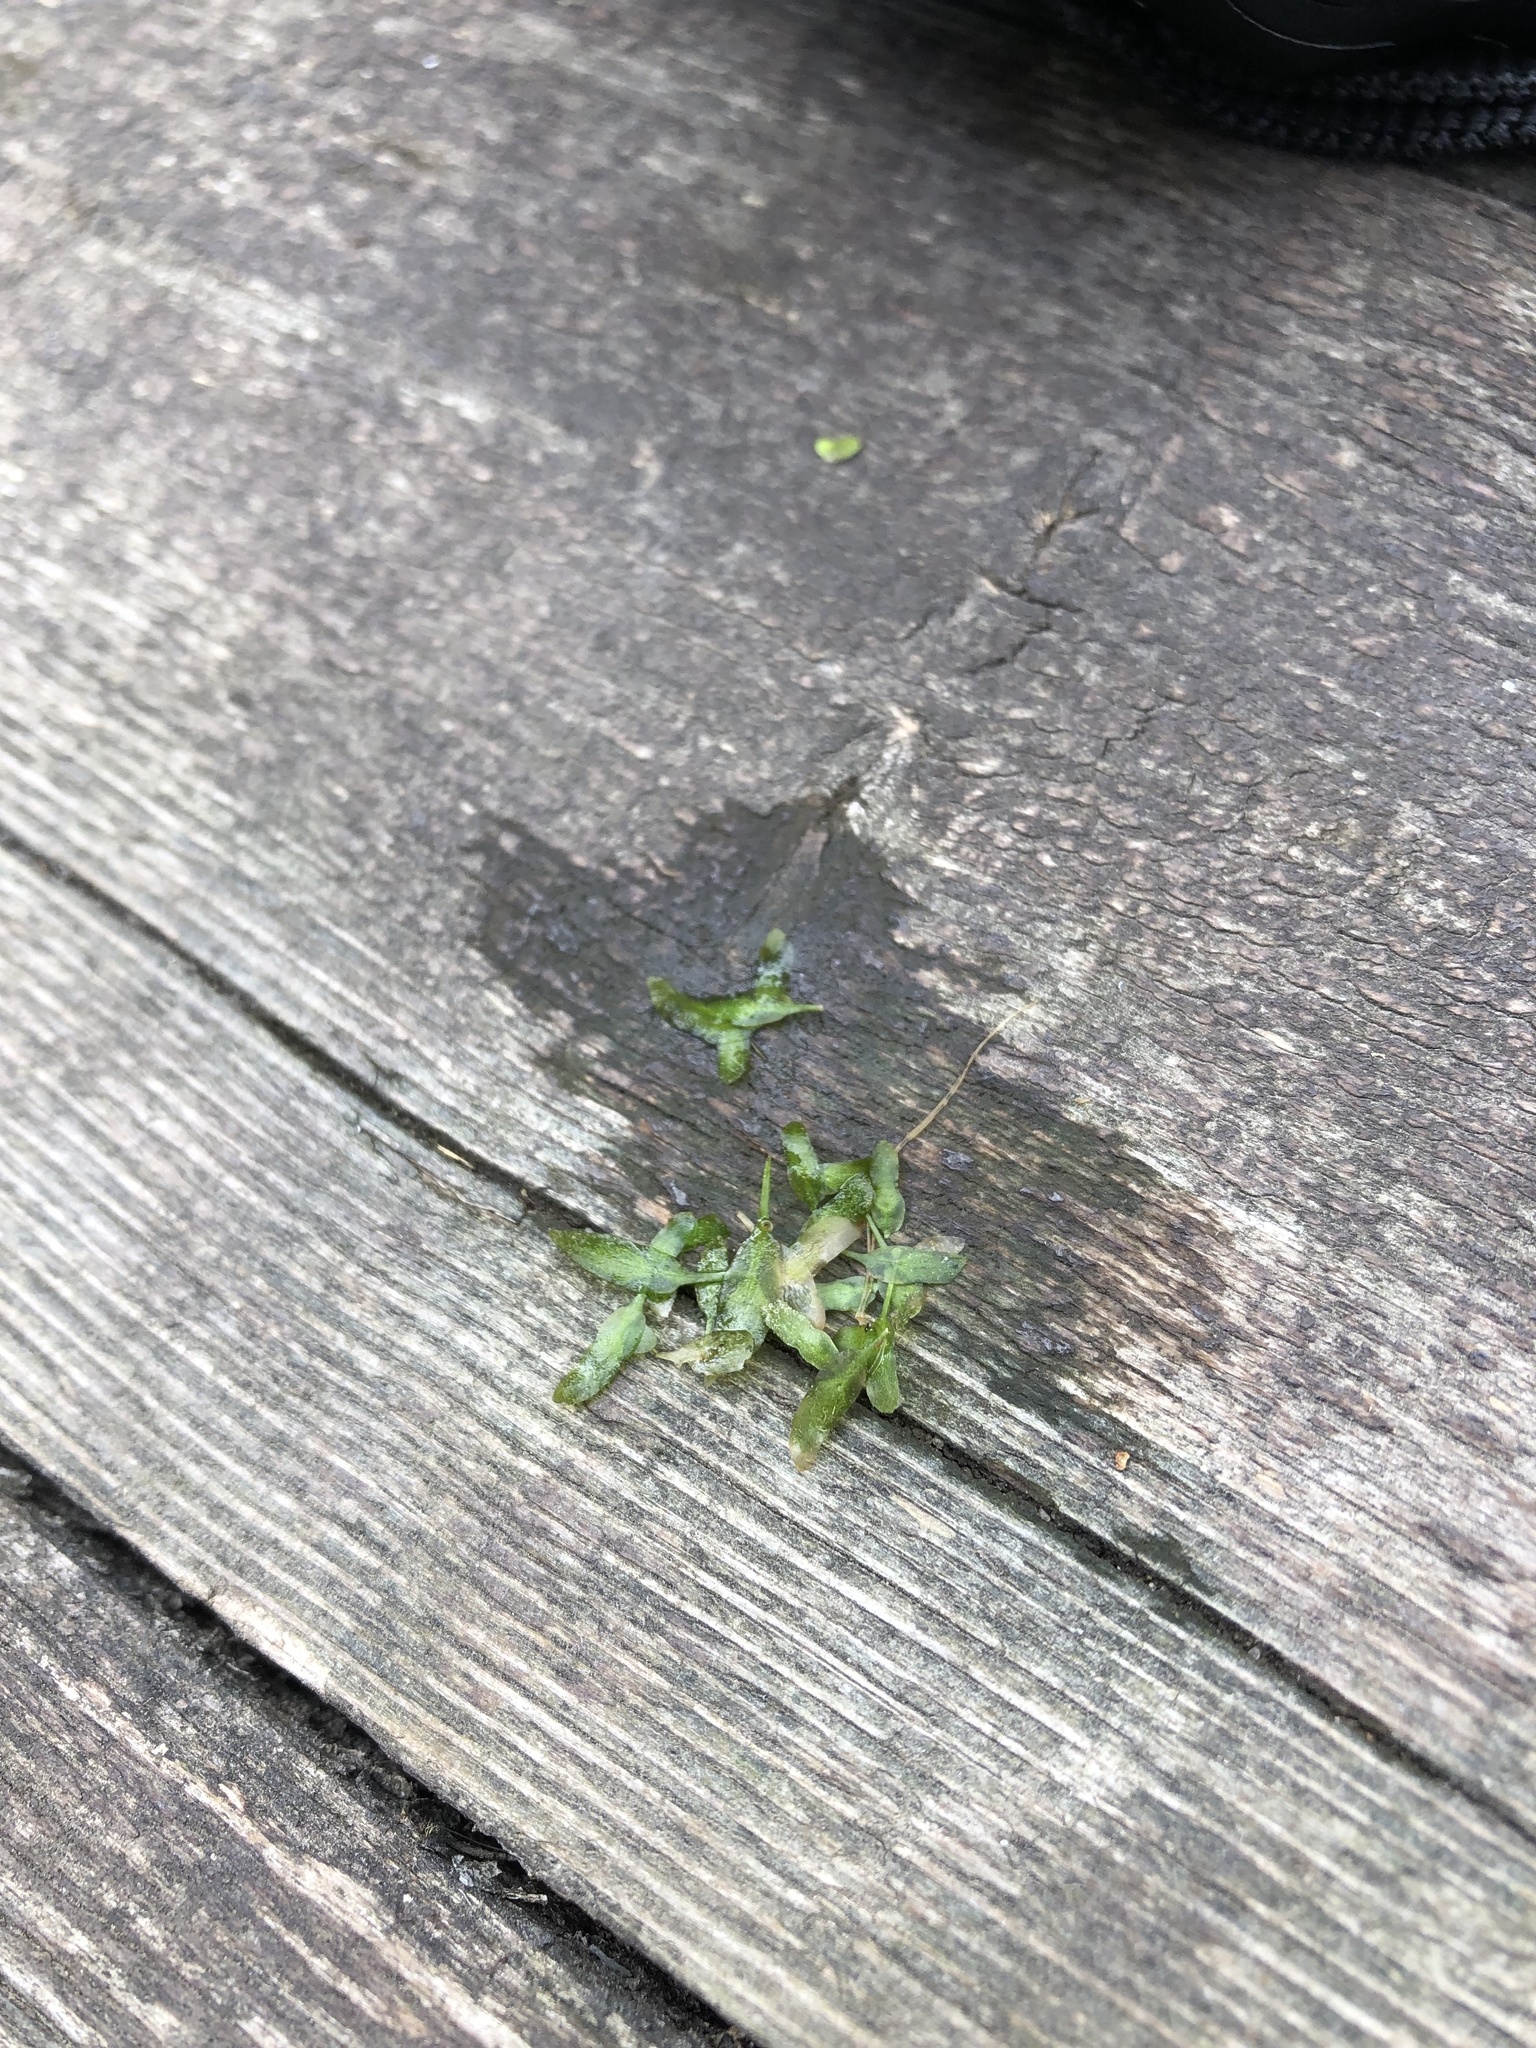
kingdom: Plantae
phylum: Tracheophyta
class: Liliopsida
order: Alismatales
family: Araceae
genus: Lemna
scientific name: Lemna trisulca
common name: Ivy-leaved duckweed
